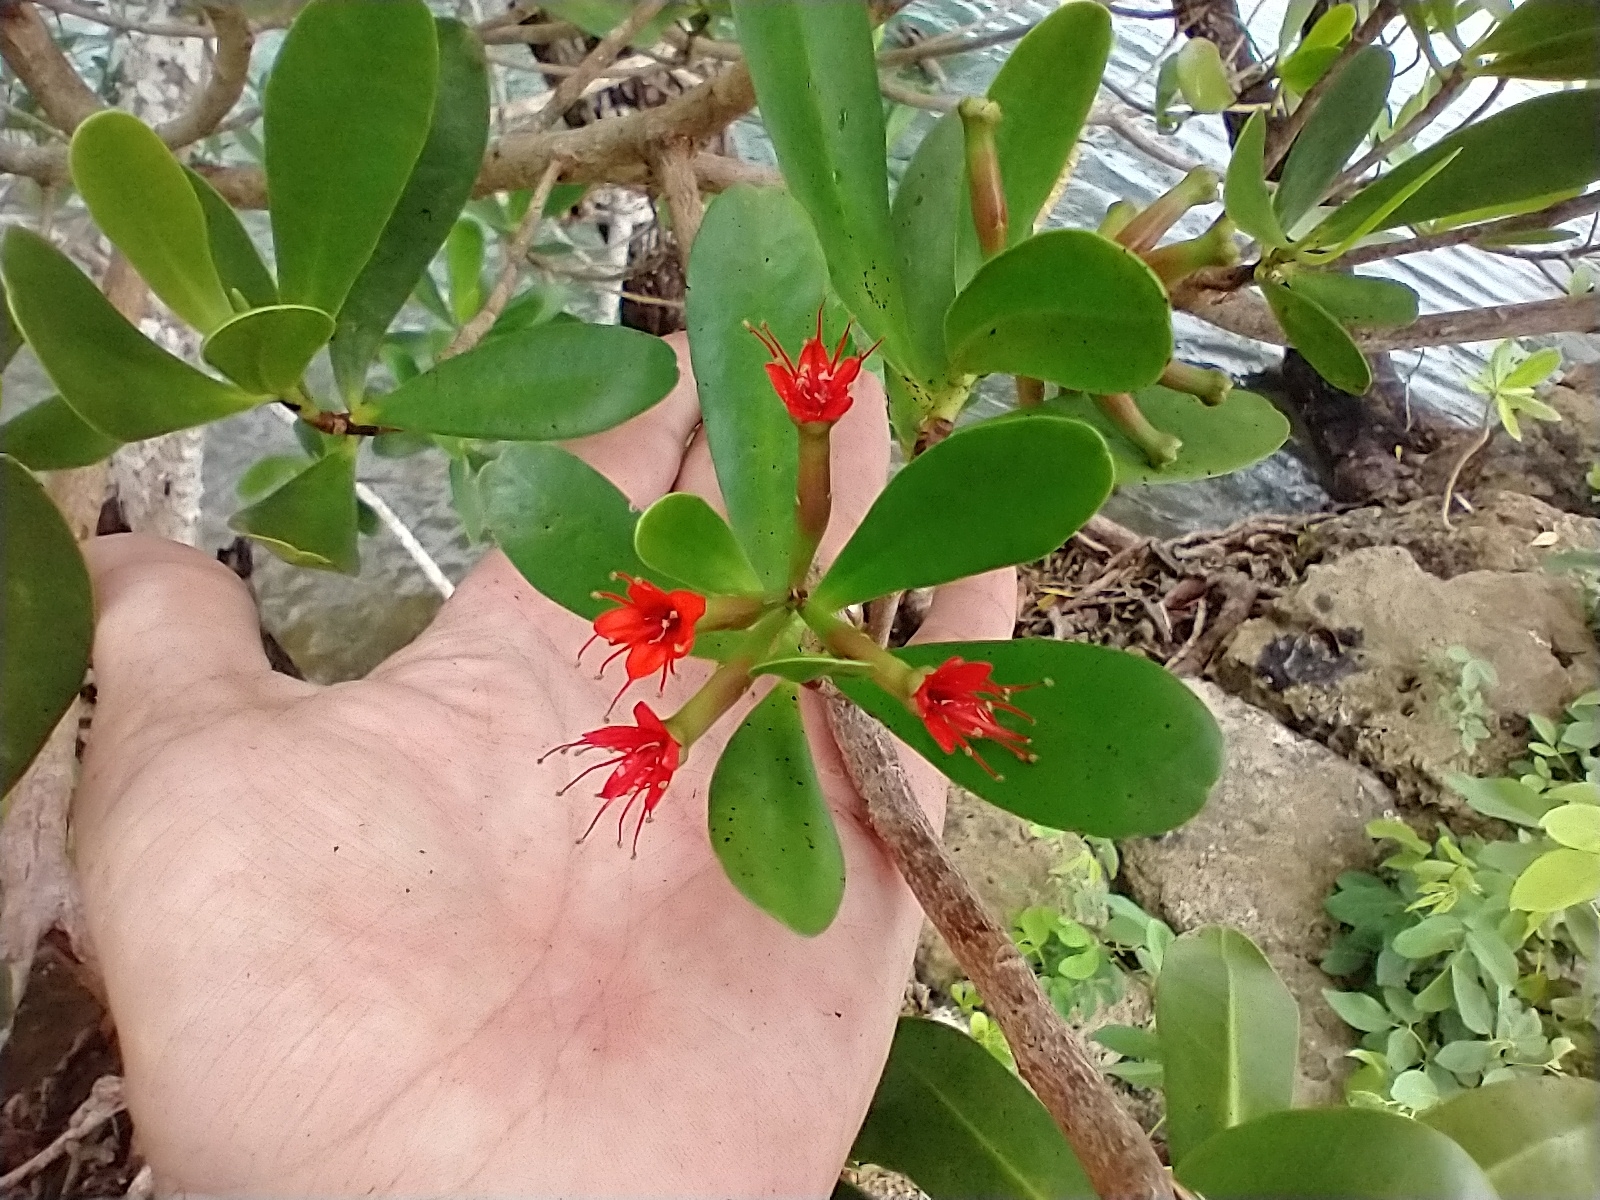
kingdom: Plantae
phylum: Tracheophyta
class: Magnoliopsida
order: Myrtales
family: Combretaceae
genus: Lumnitzera
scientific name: Lumnitzera littorea
